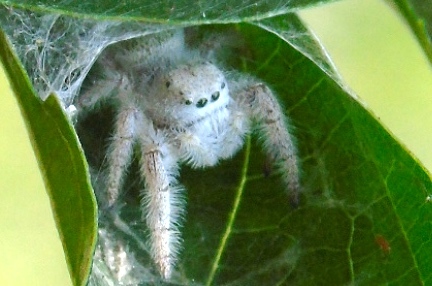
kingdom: Animalia
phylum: Arthropoda
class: Arachnida
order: Araneae
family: Salticidae
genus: Paraphidippus
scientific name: Paraphidippus fartilis
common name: Jumping spiders
